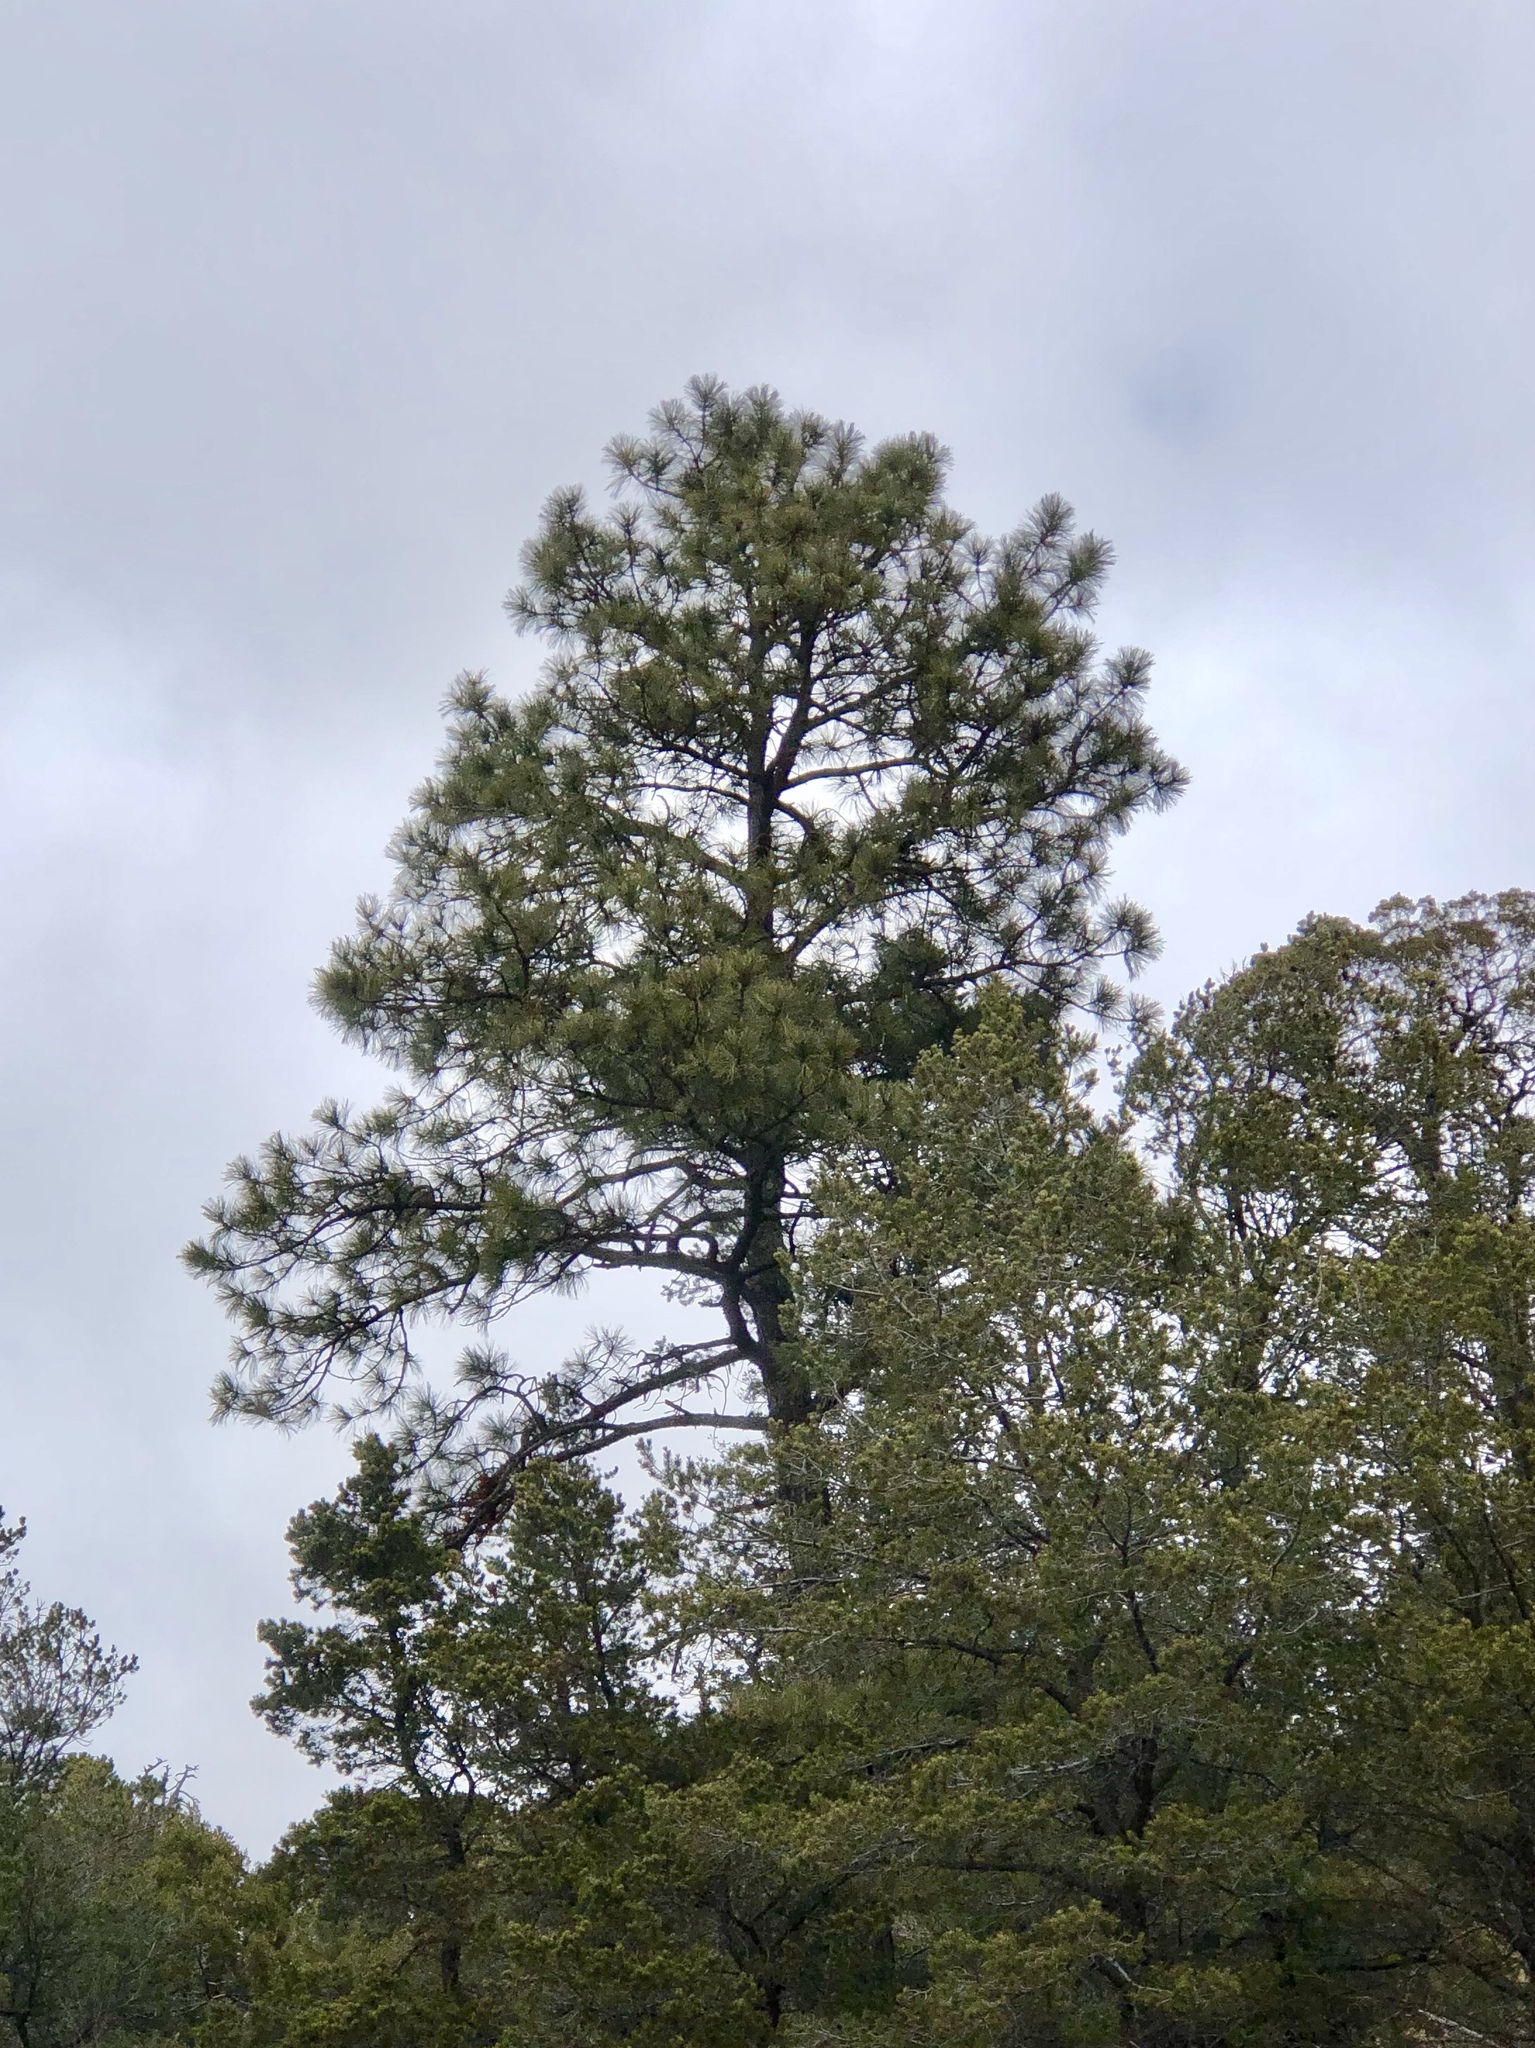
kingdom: Plantae
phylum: Tracheophyta
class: Pinopsida
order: Pinales
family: Pinaceae
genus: Pinus
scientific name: Pinus ponderosa
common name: Western yellow-pine
